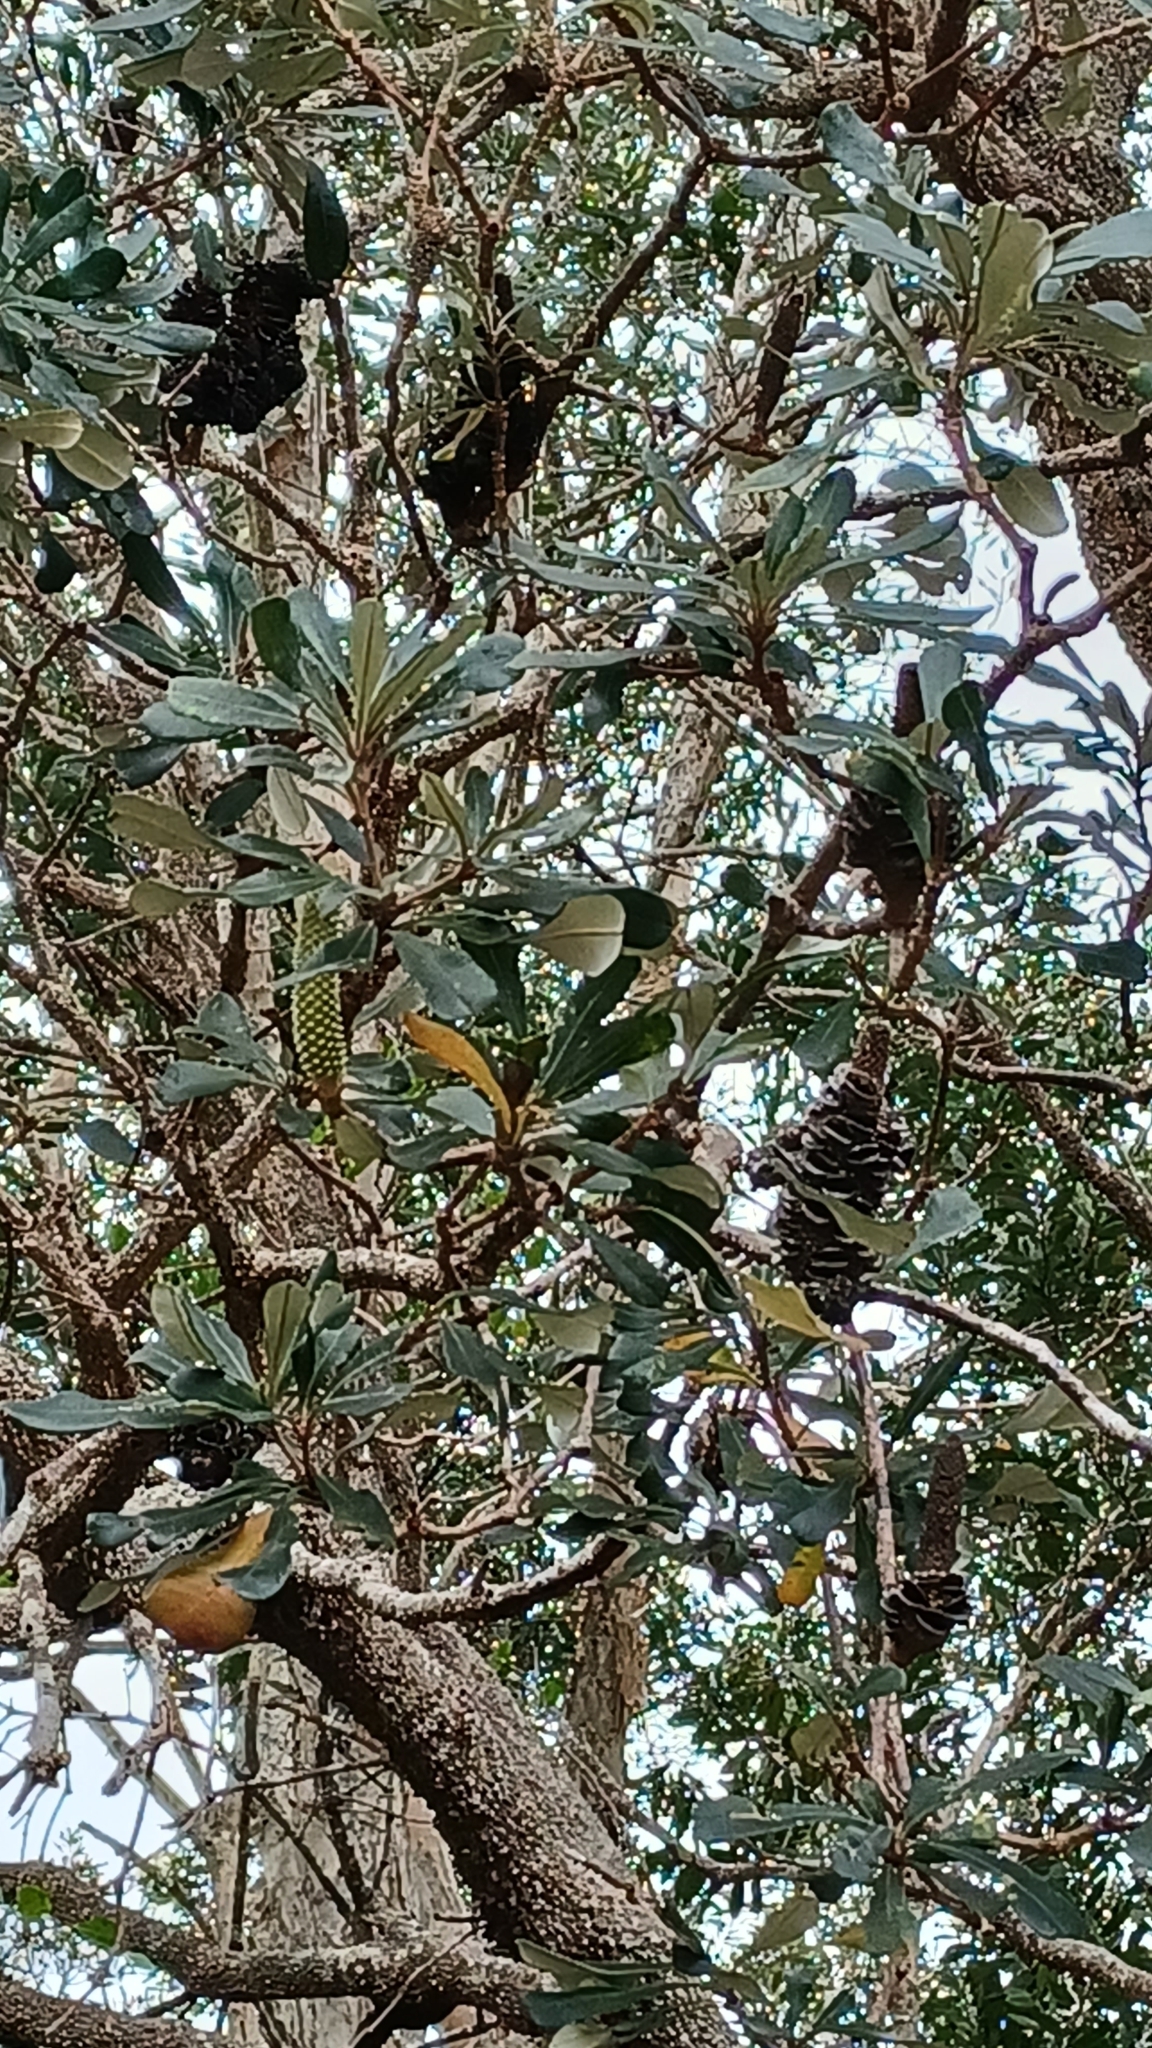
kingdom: Plantae
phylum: Tracheophyta
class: Magnoliopsida
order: Proteales
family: Proteaceae
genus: Banksia
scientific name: Banksia integrifolia
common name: White-honeysuckle
